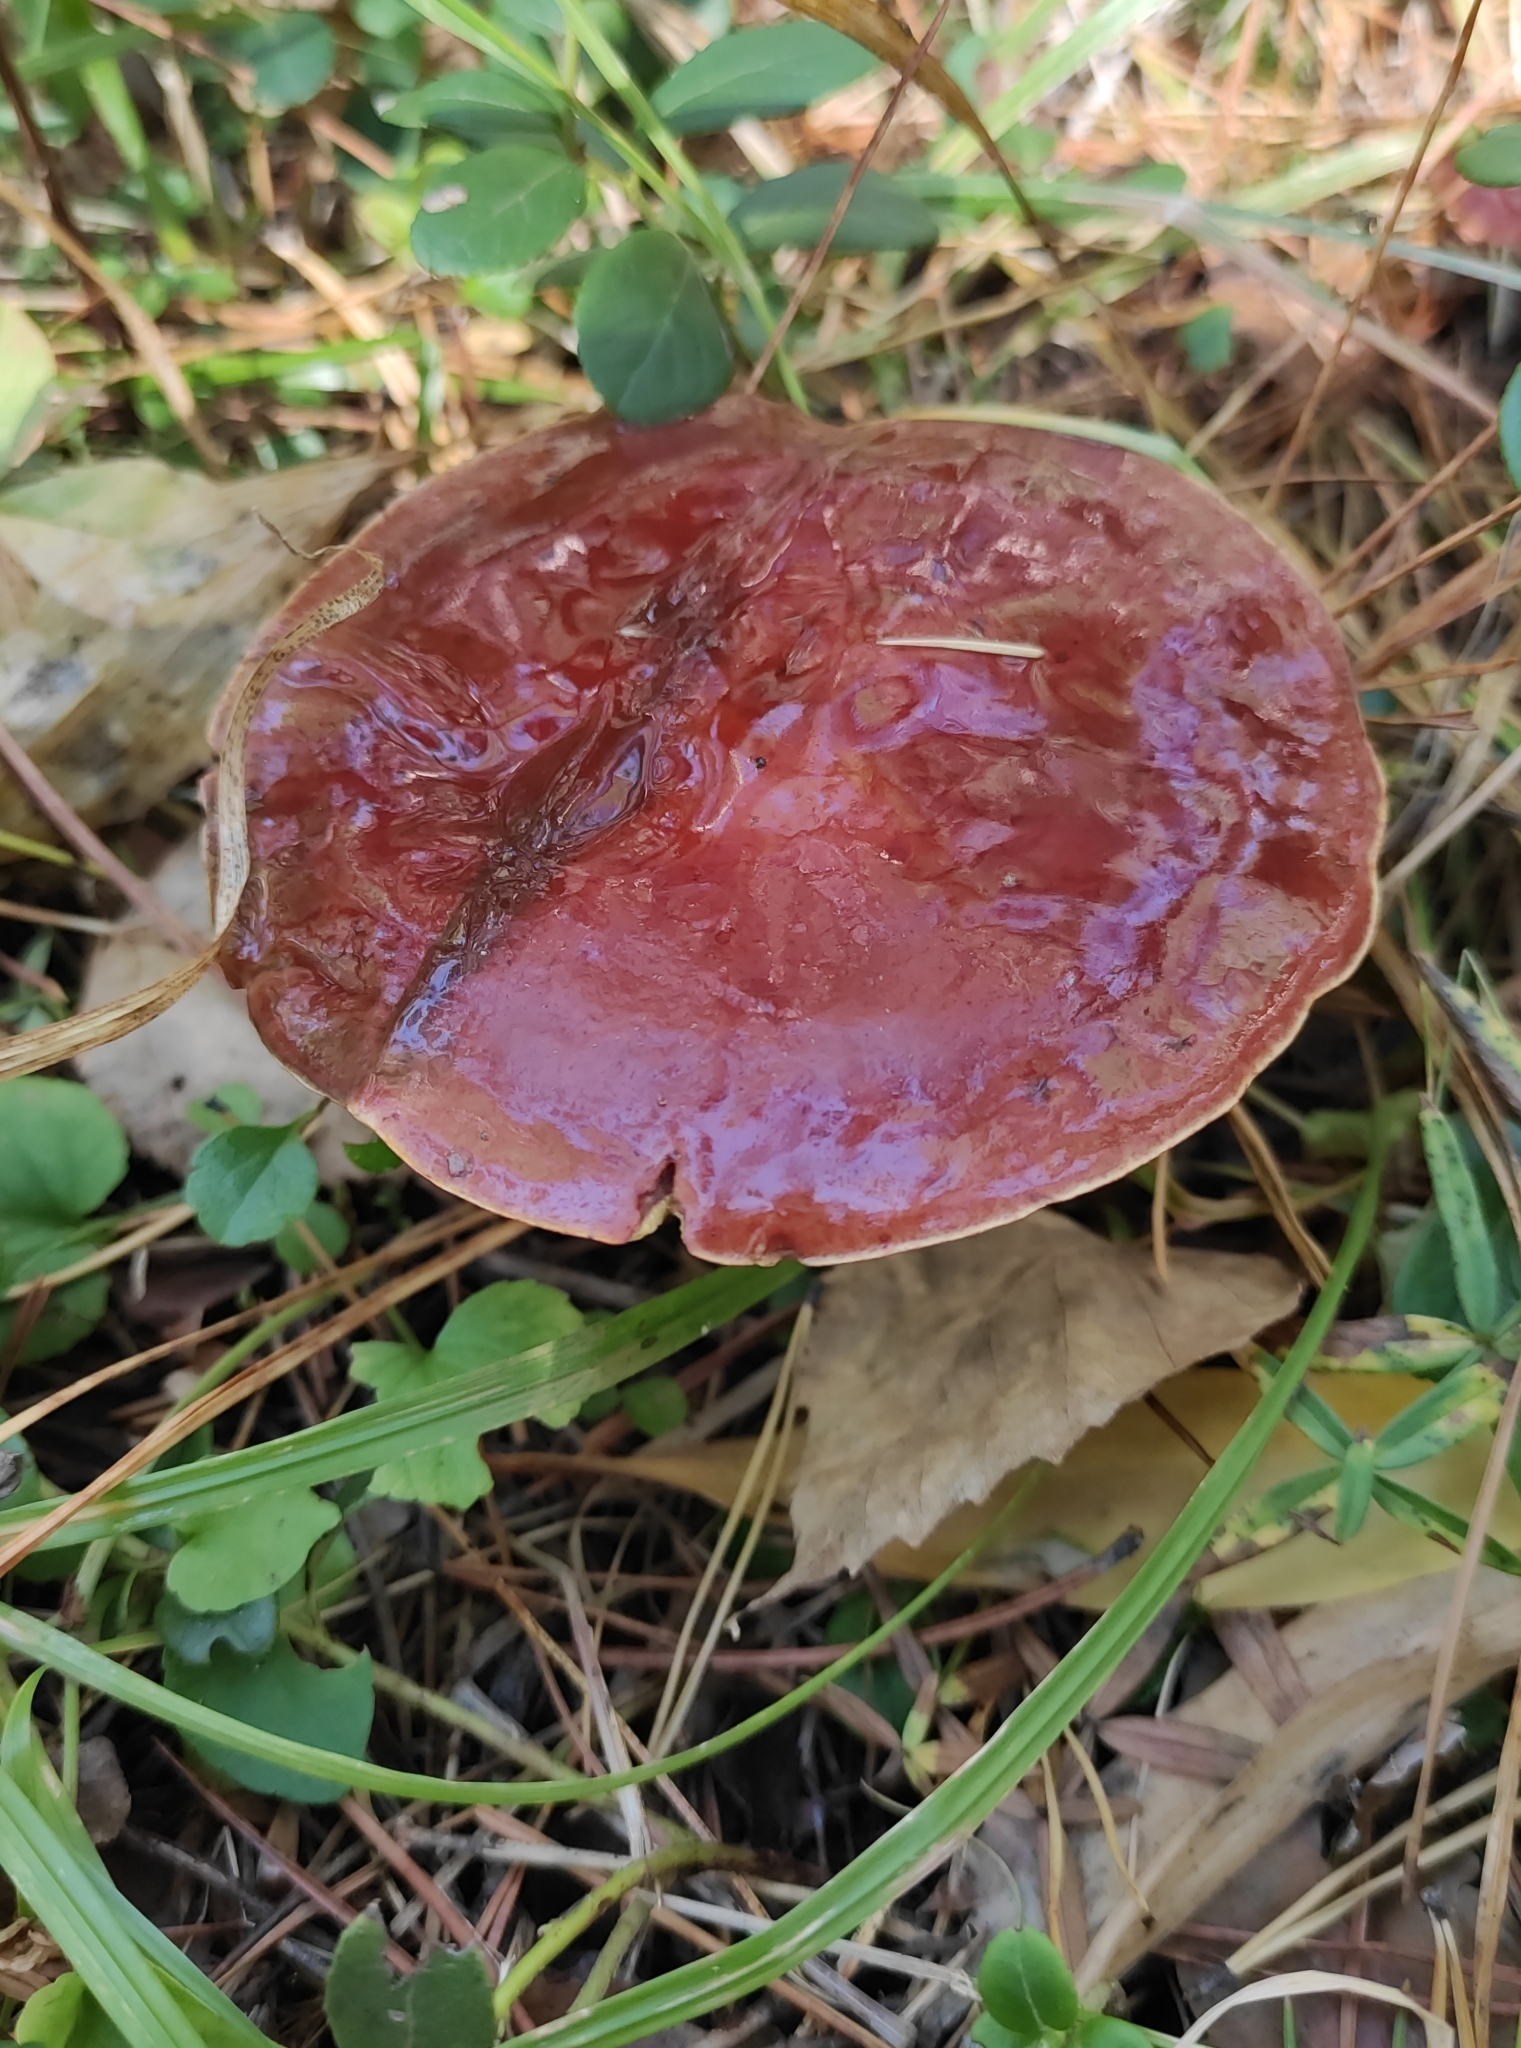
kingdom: Fungi
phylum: Basidiomycota
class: Agaricomycetes
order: Boletales
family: Suillaceae
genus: Suillus
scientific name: Suillus grevillei
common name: Larch bolete
